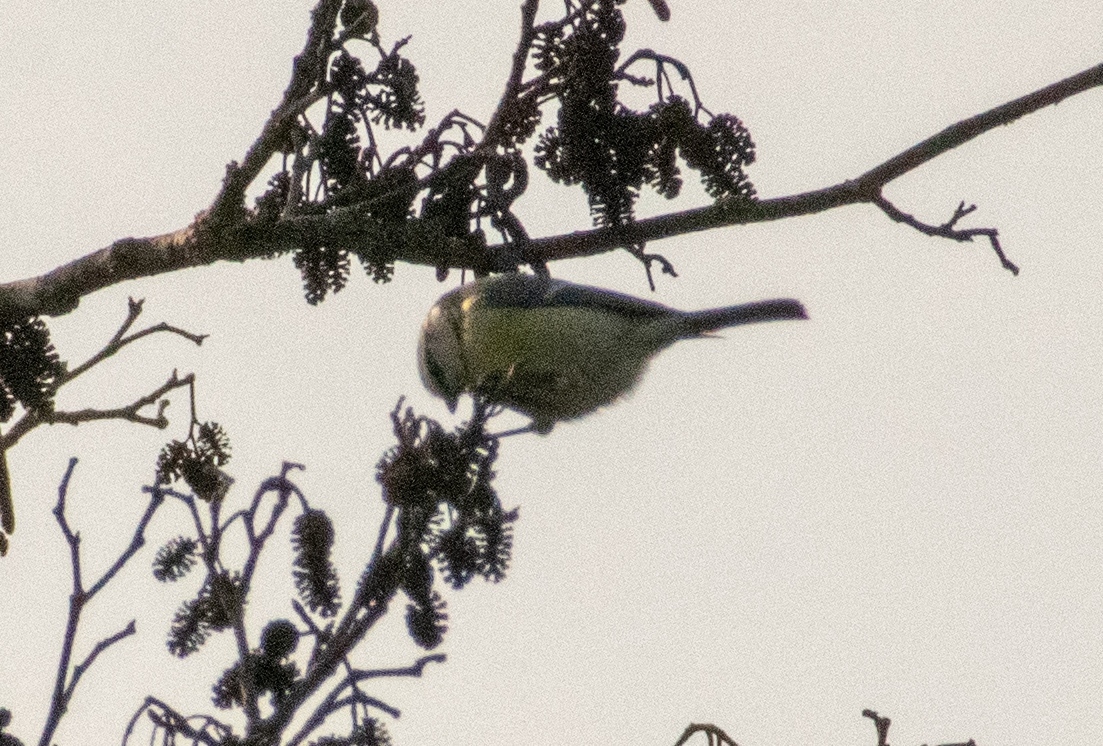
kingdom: Animalia
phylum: Chordata
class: Aves
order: Passeriformes
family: Paridae
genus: Cyanistes
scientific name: Cyanistes caeruleus
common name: Eurasian blue tit
